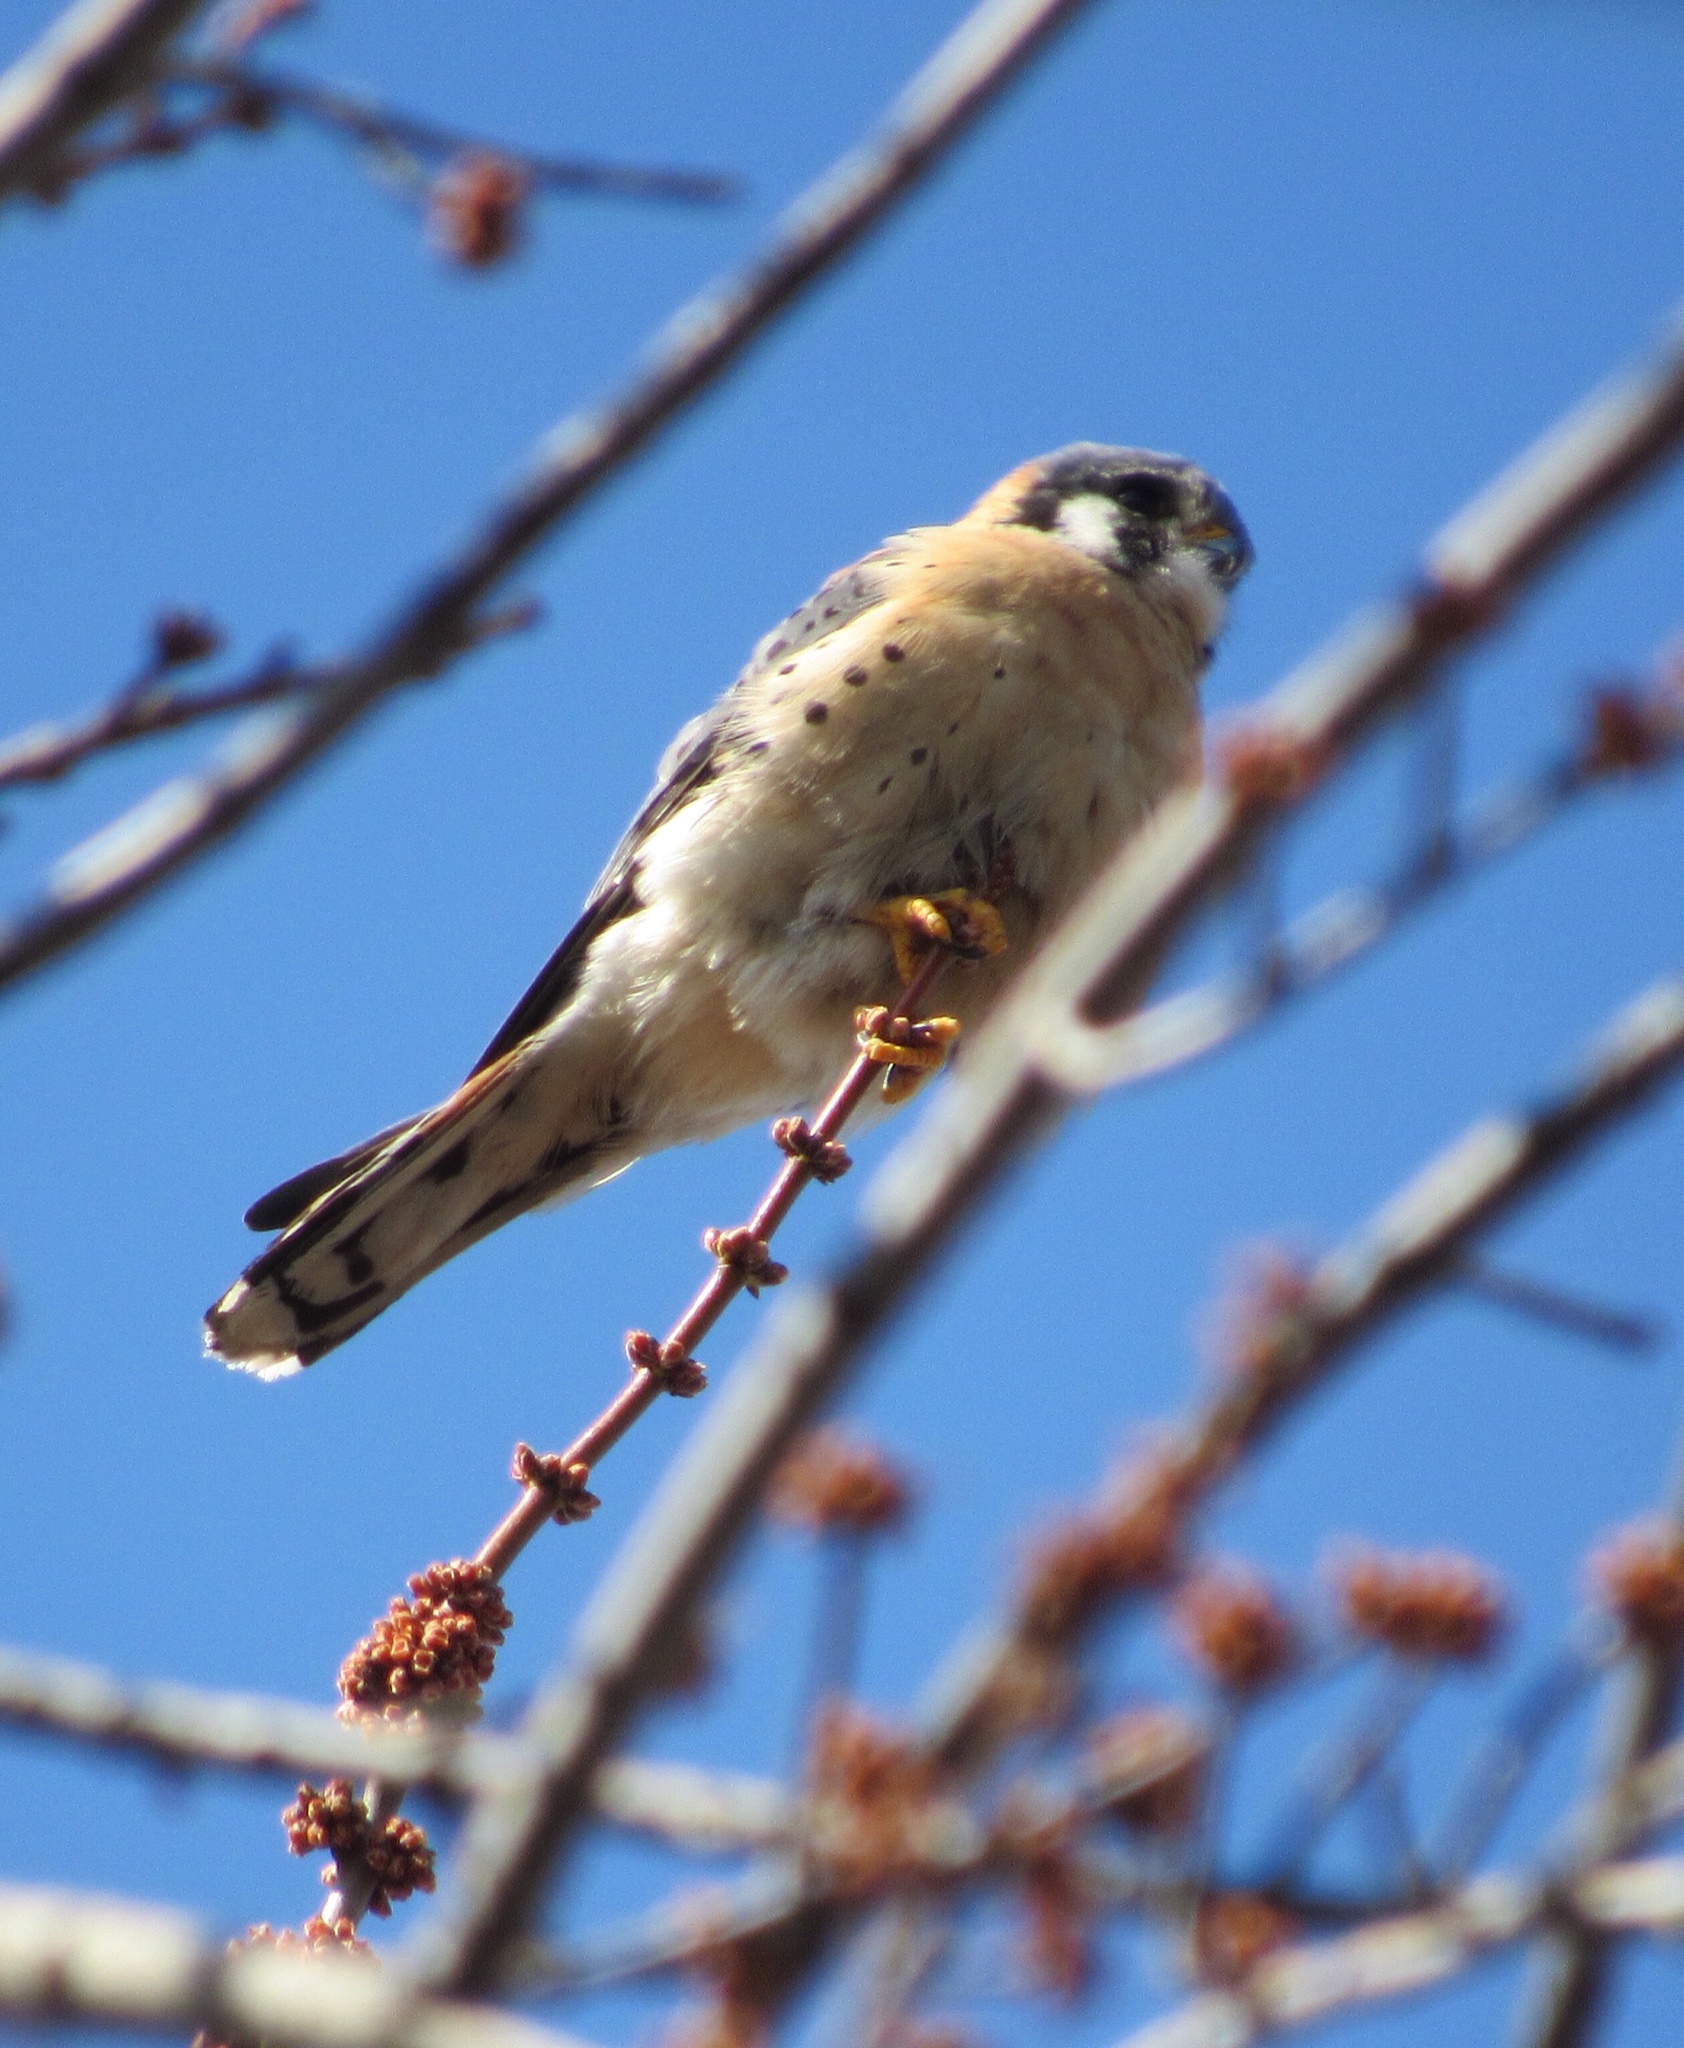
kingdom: Animalia
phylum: Chordata
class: Aves
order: Falconiformes
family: Falconidae
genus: Falco
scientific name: Falco sparverius
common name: American kestrel
